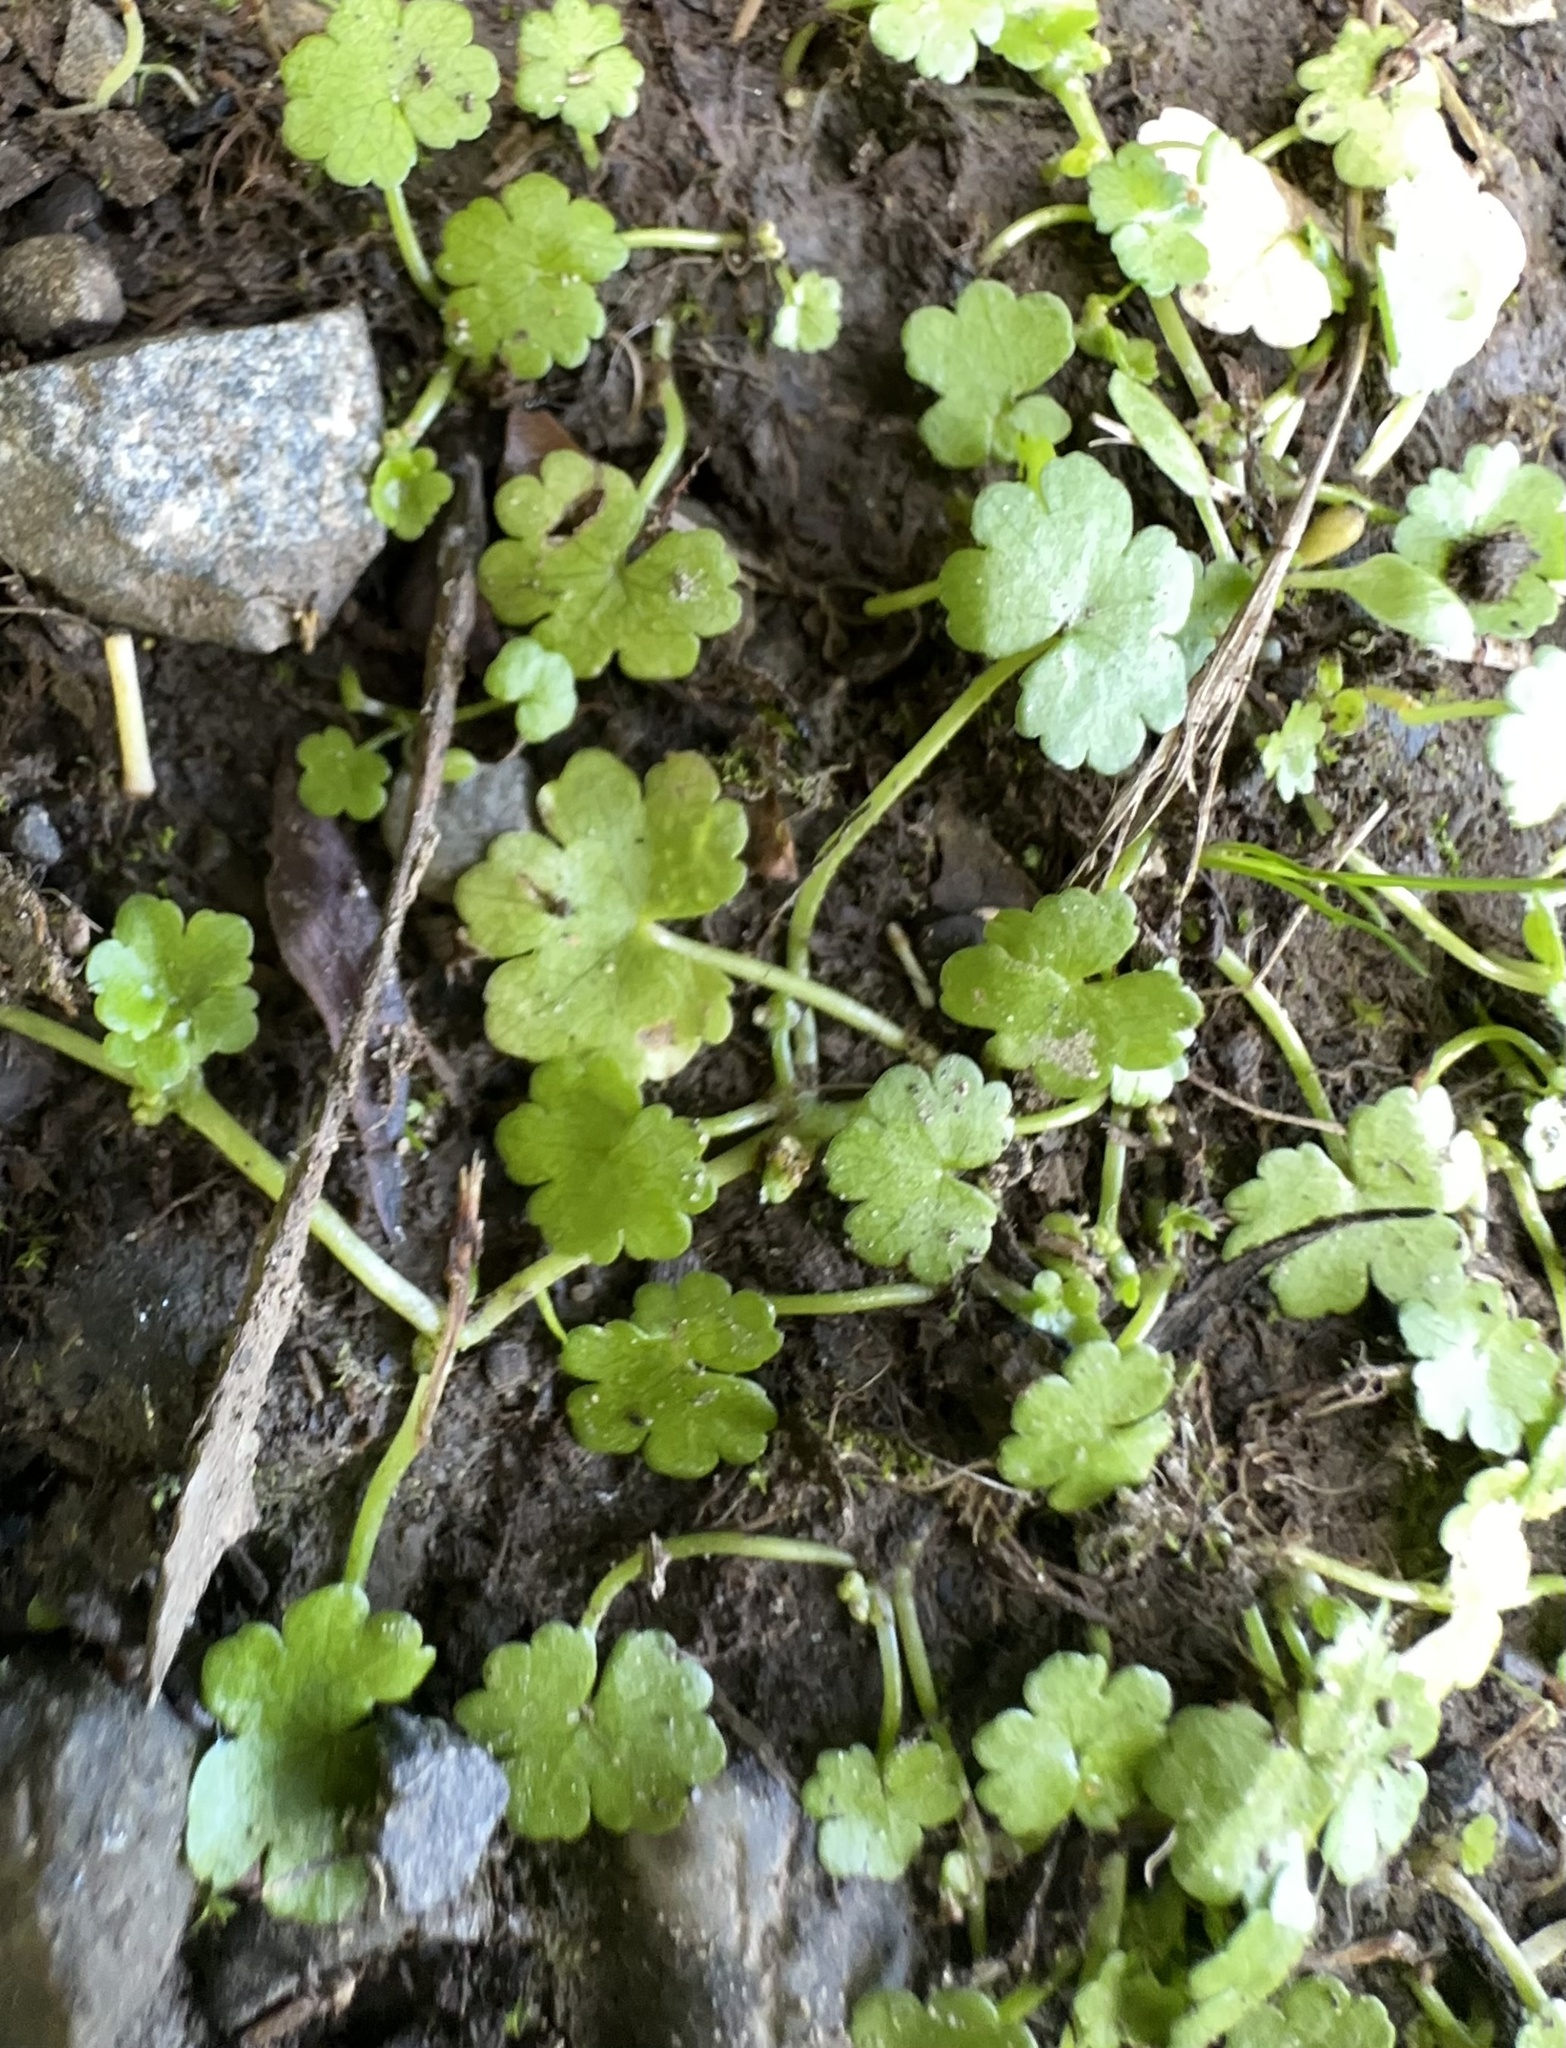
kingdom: Plantae
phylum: Tracheophyta
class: Magnoliopsida
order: Apiales
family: Araliaceae
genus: Hydrocotyle
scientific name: Hydrocotyle heteromeria
